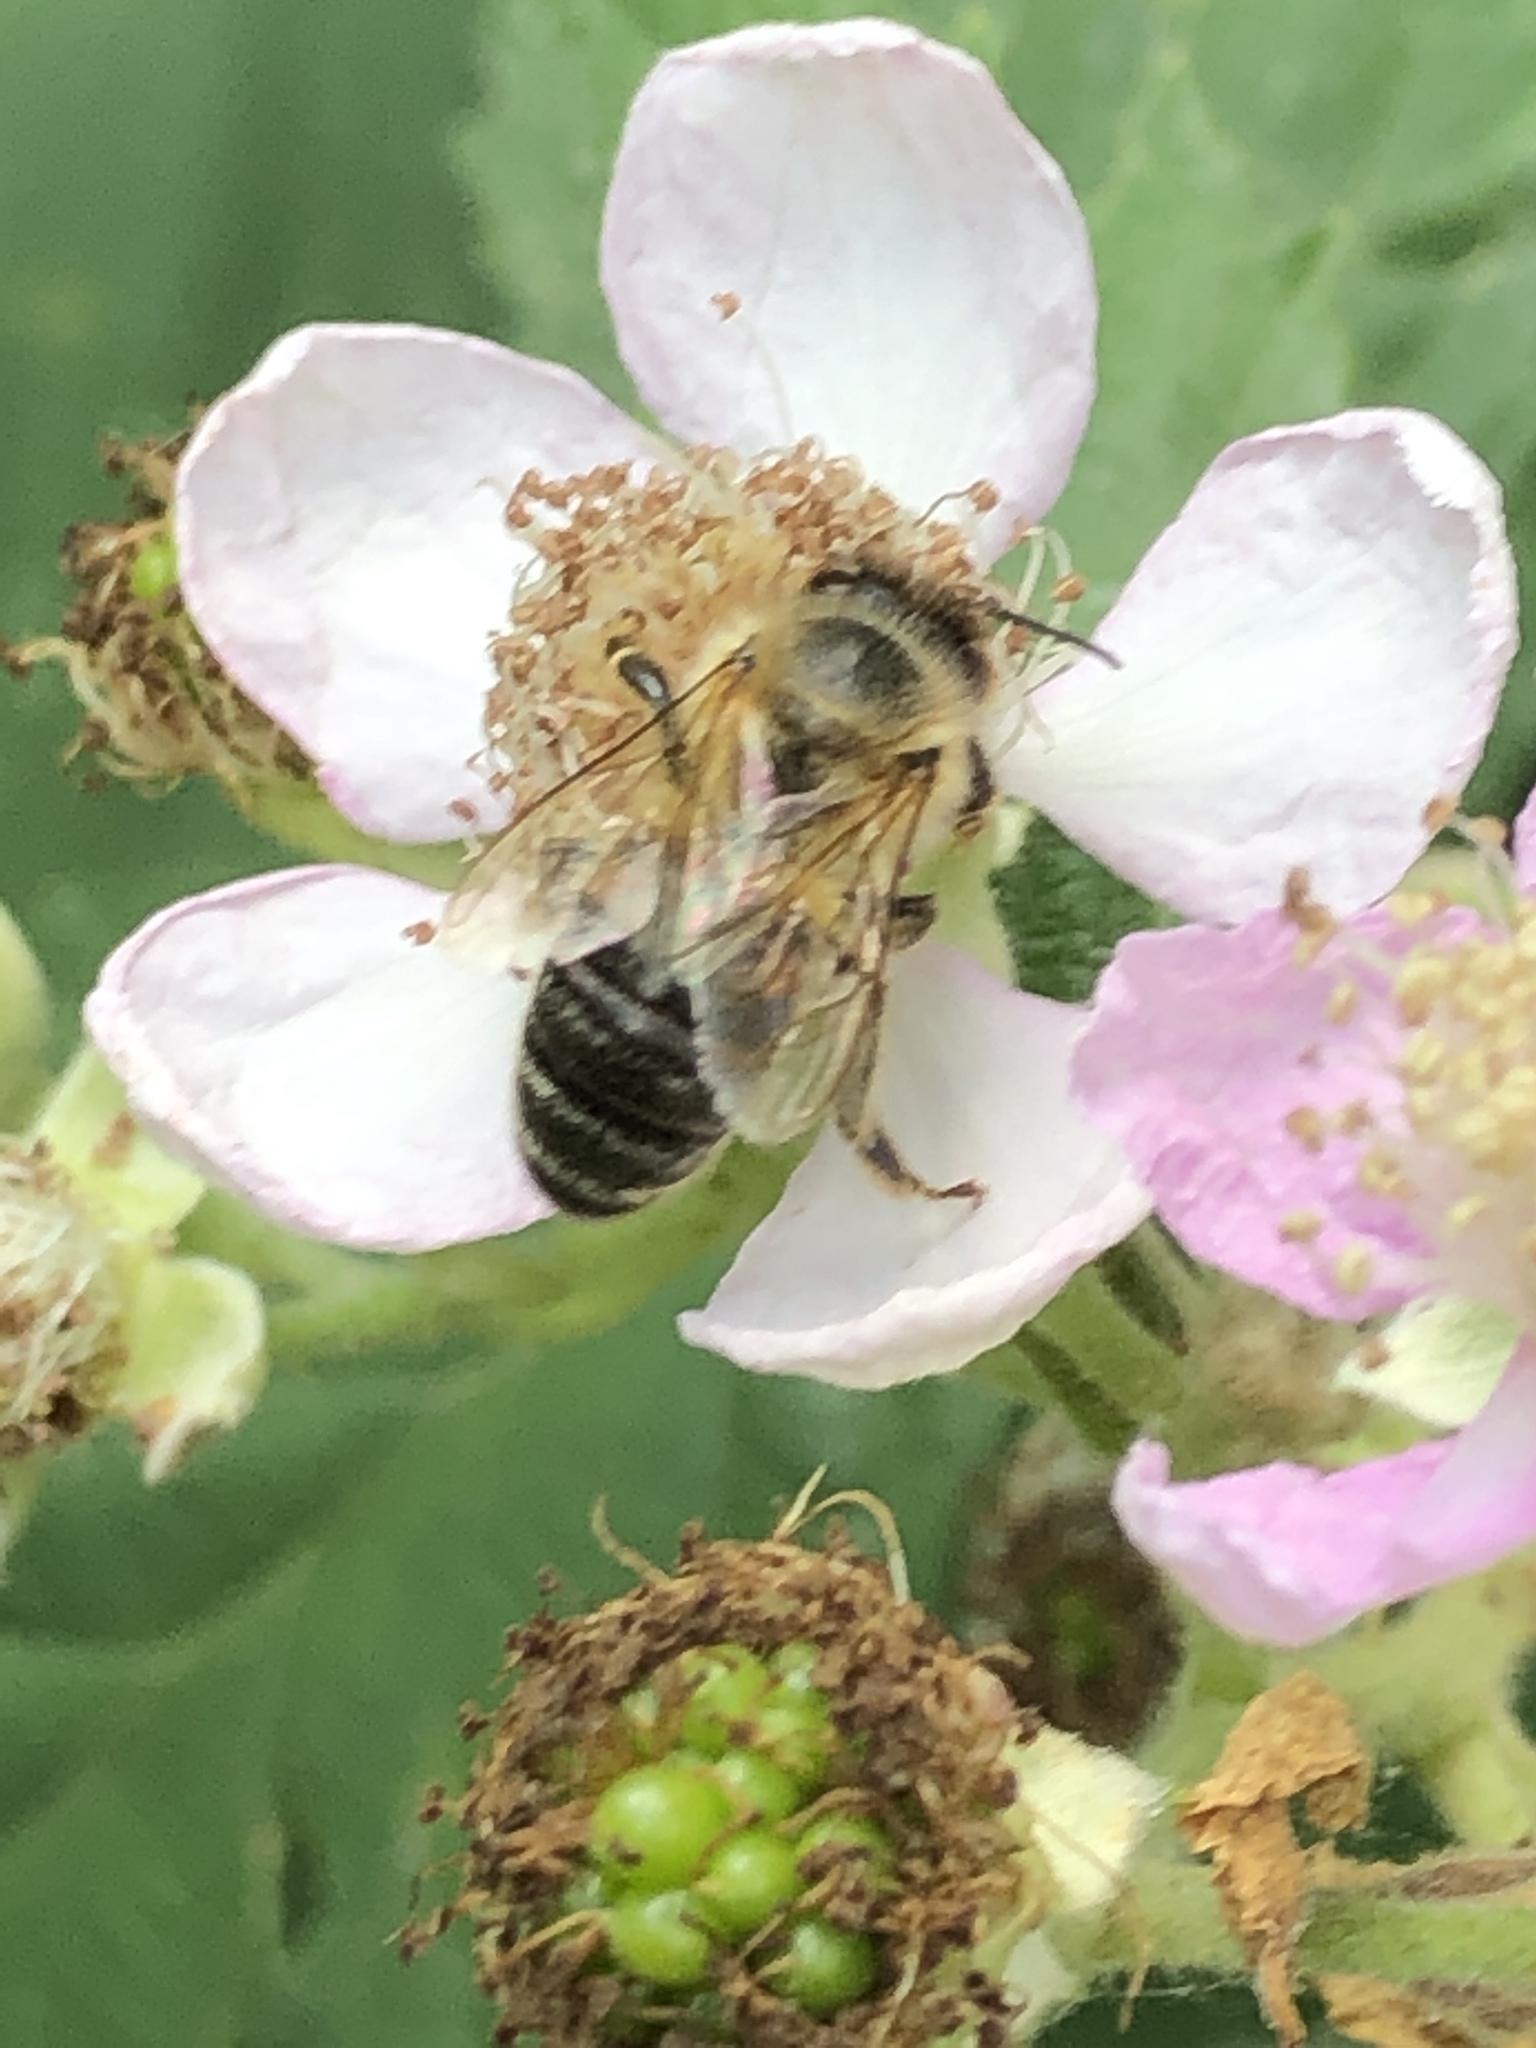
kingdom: Animalia
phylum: Arthropoda
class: Insecta
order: Hymenoptera
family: Apidae
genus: Apis
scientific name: Apis mellifera
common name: Honey bee
